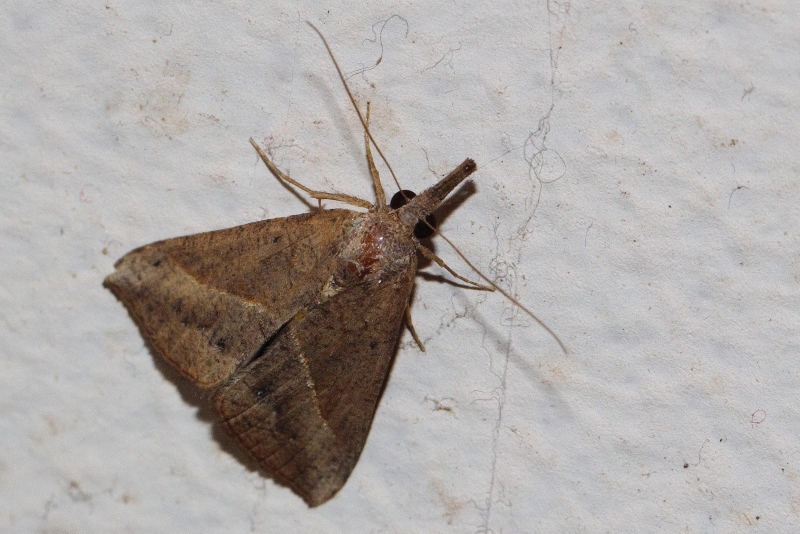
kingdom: Animalia
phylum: Arthropoda
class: Insecta
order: Lepidoptera
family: Erebidae
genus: Hypena
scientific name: Hypena lividalis
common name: Chevron snout
